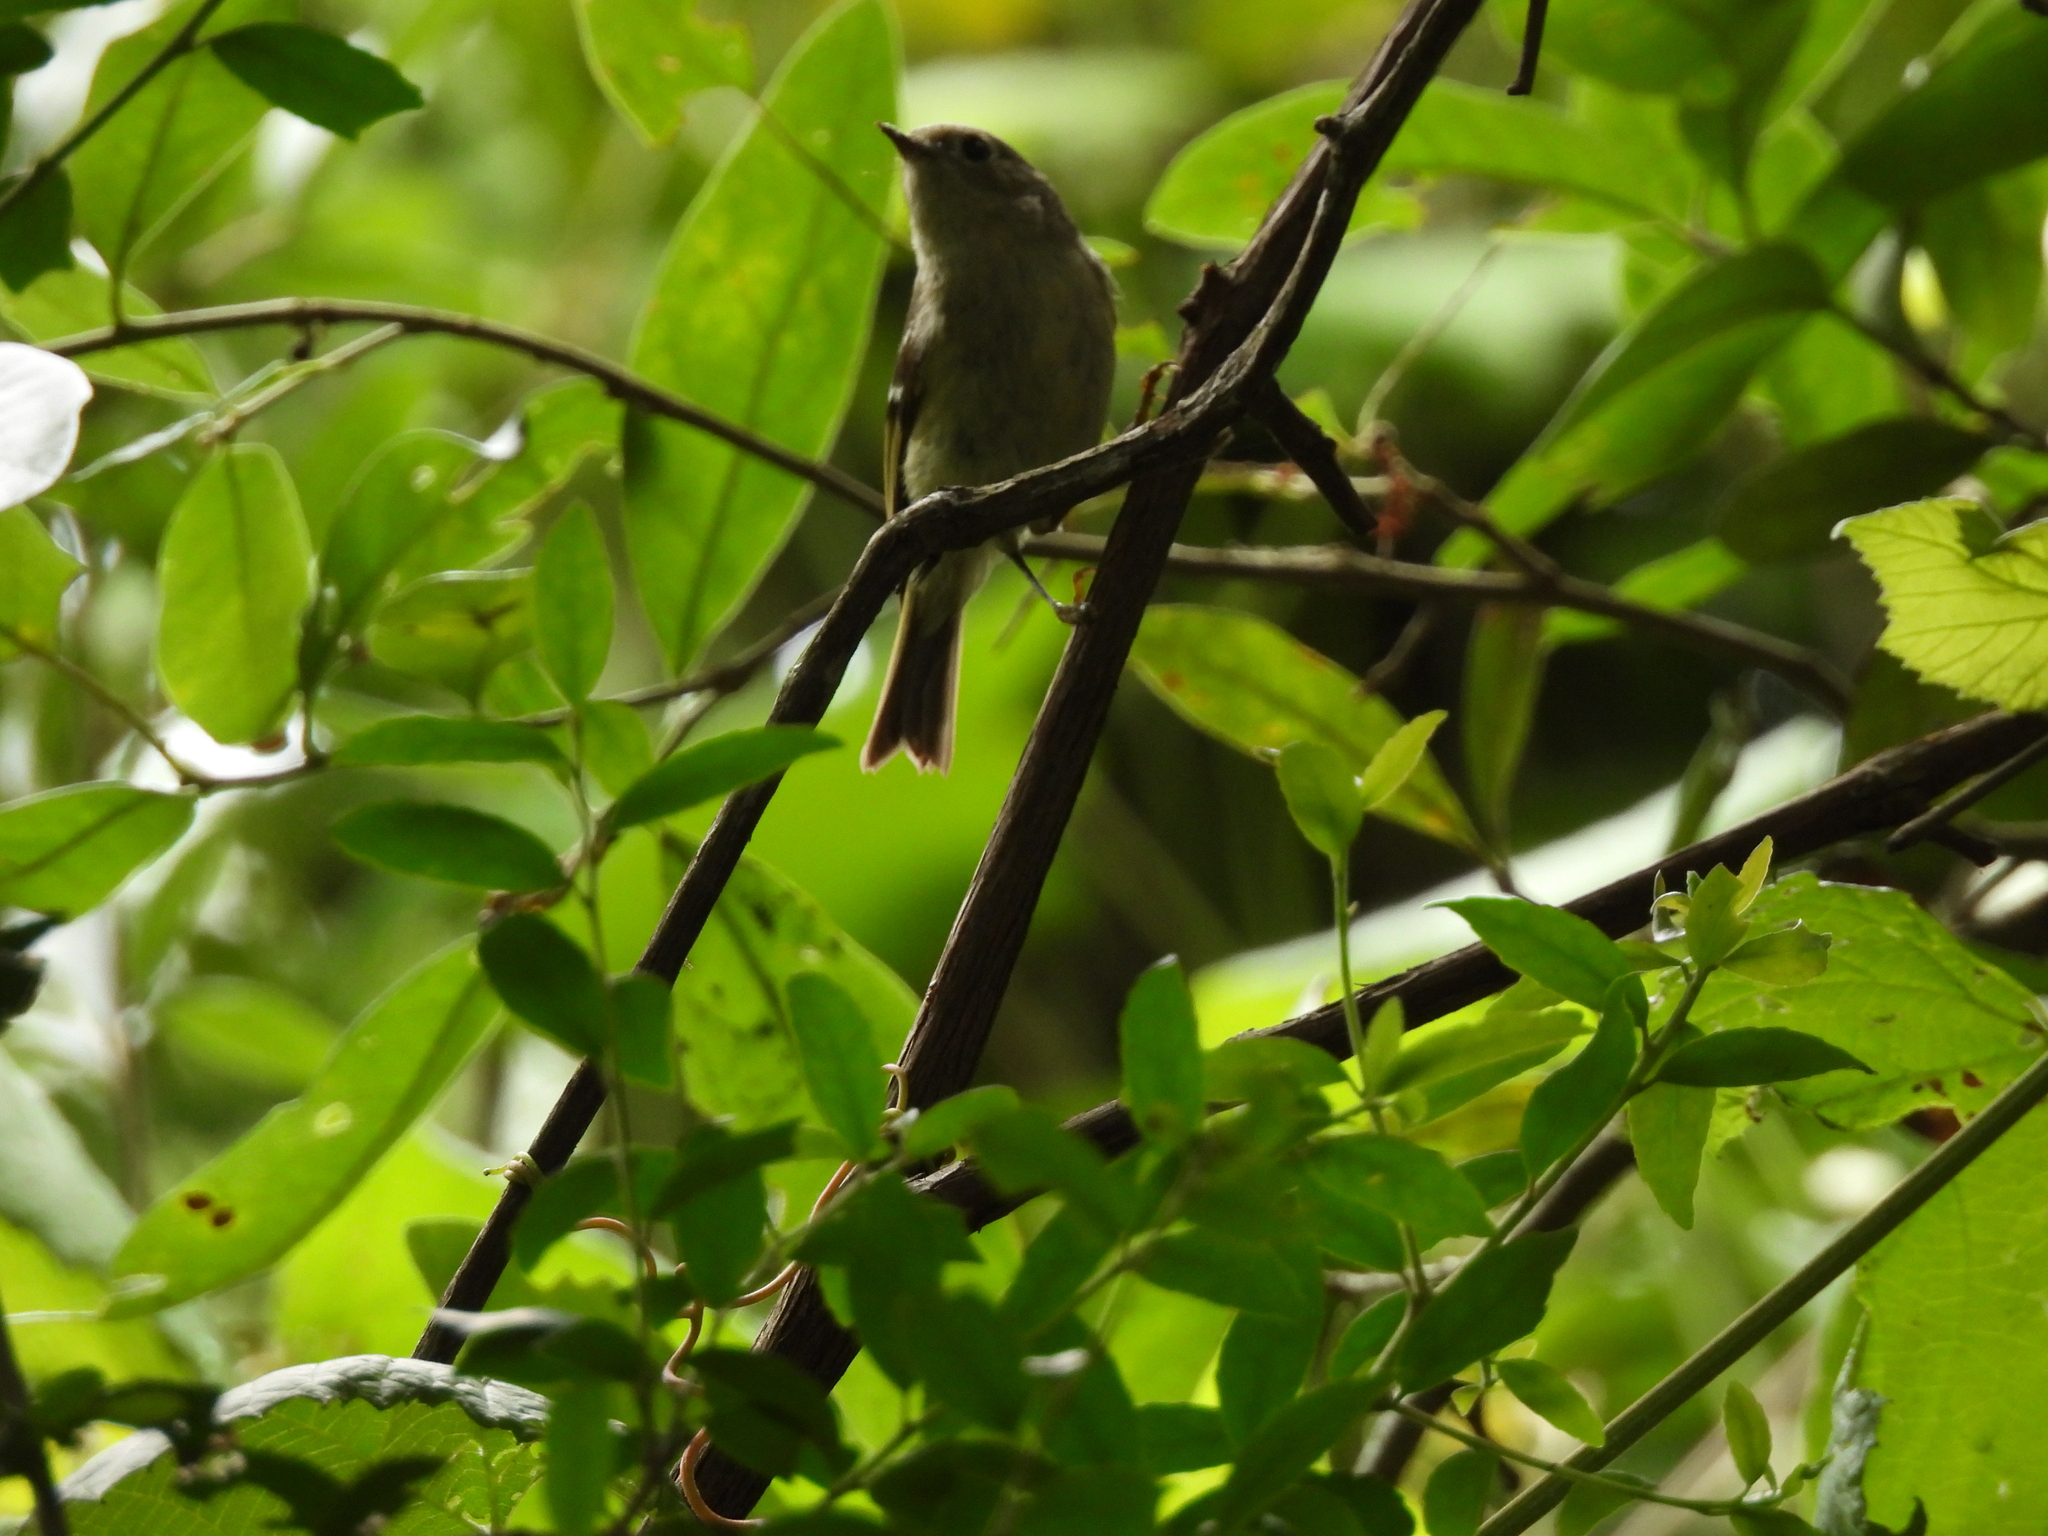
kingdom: Animalia
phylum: Chordata
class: Aves
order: Passeriformes
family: Regulidae
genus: Regulus
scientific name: Regulus calendula
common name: Ruby-crowned kinglet
